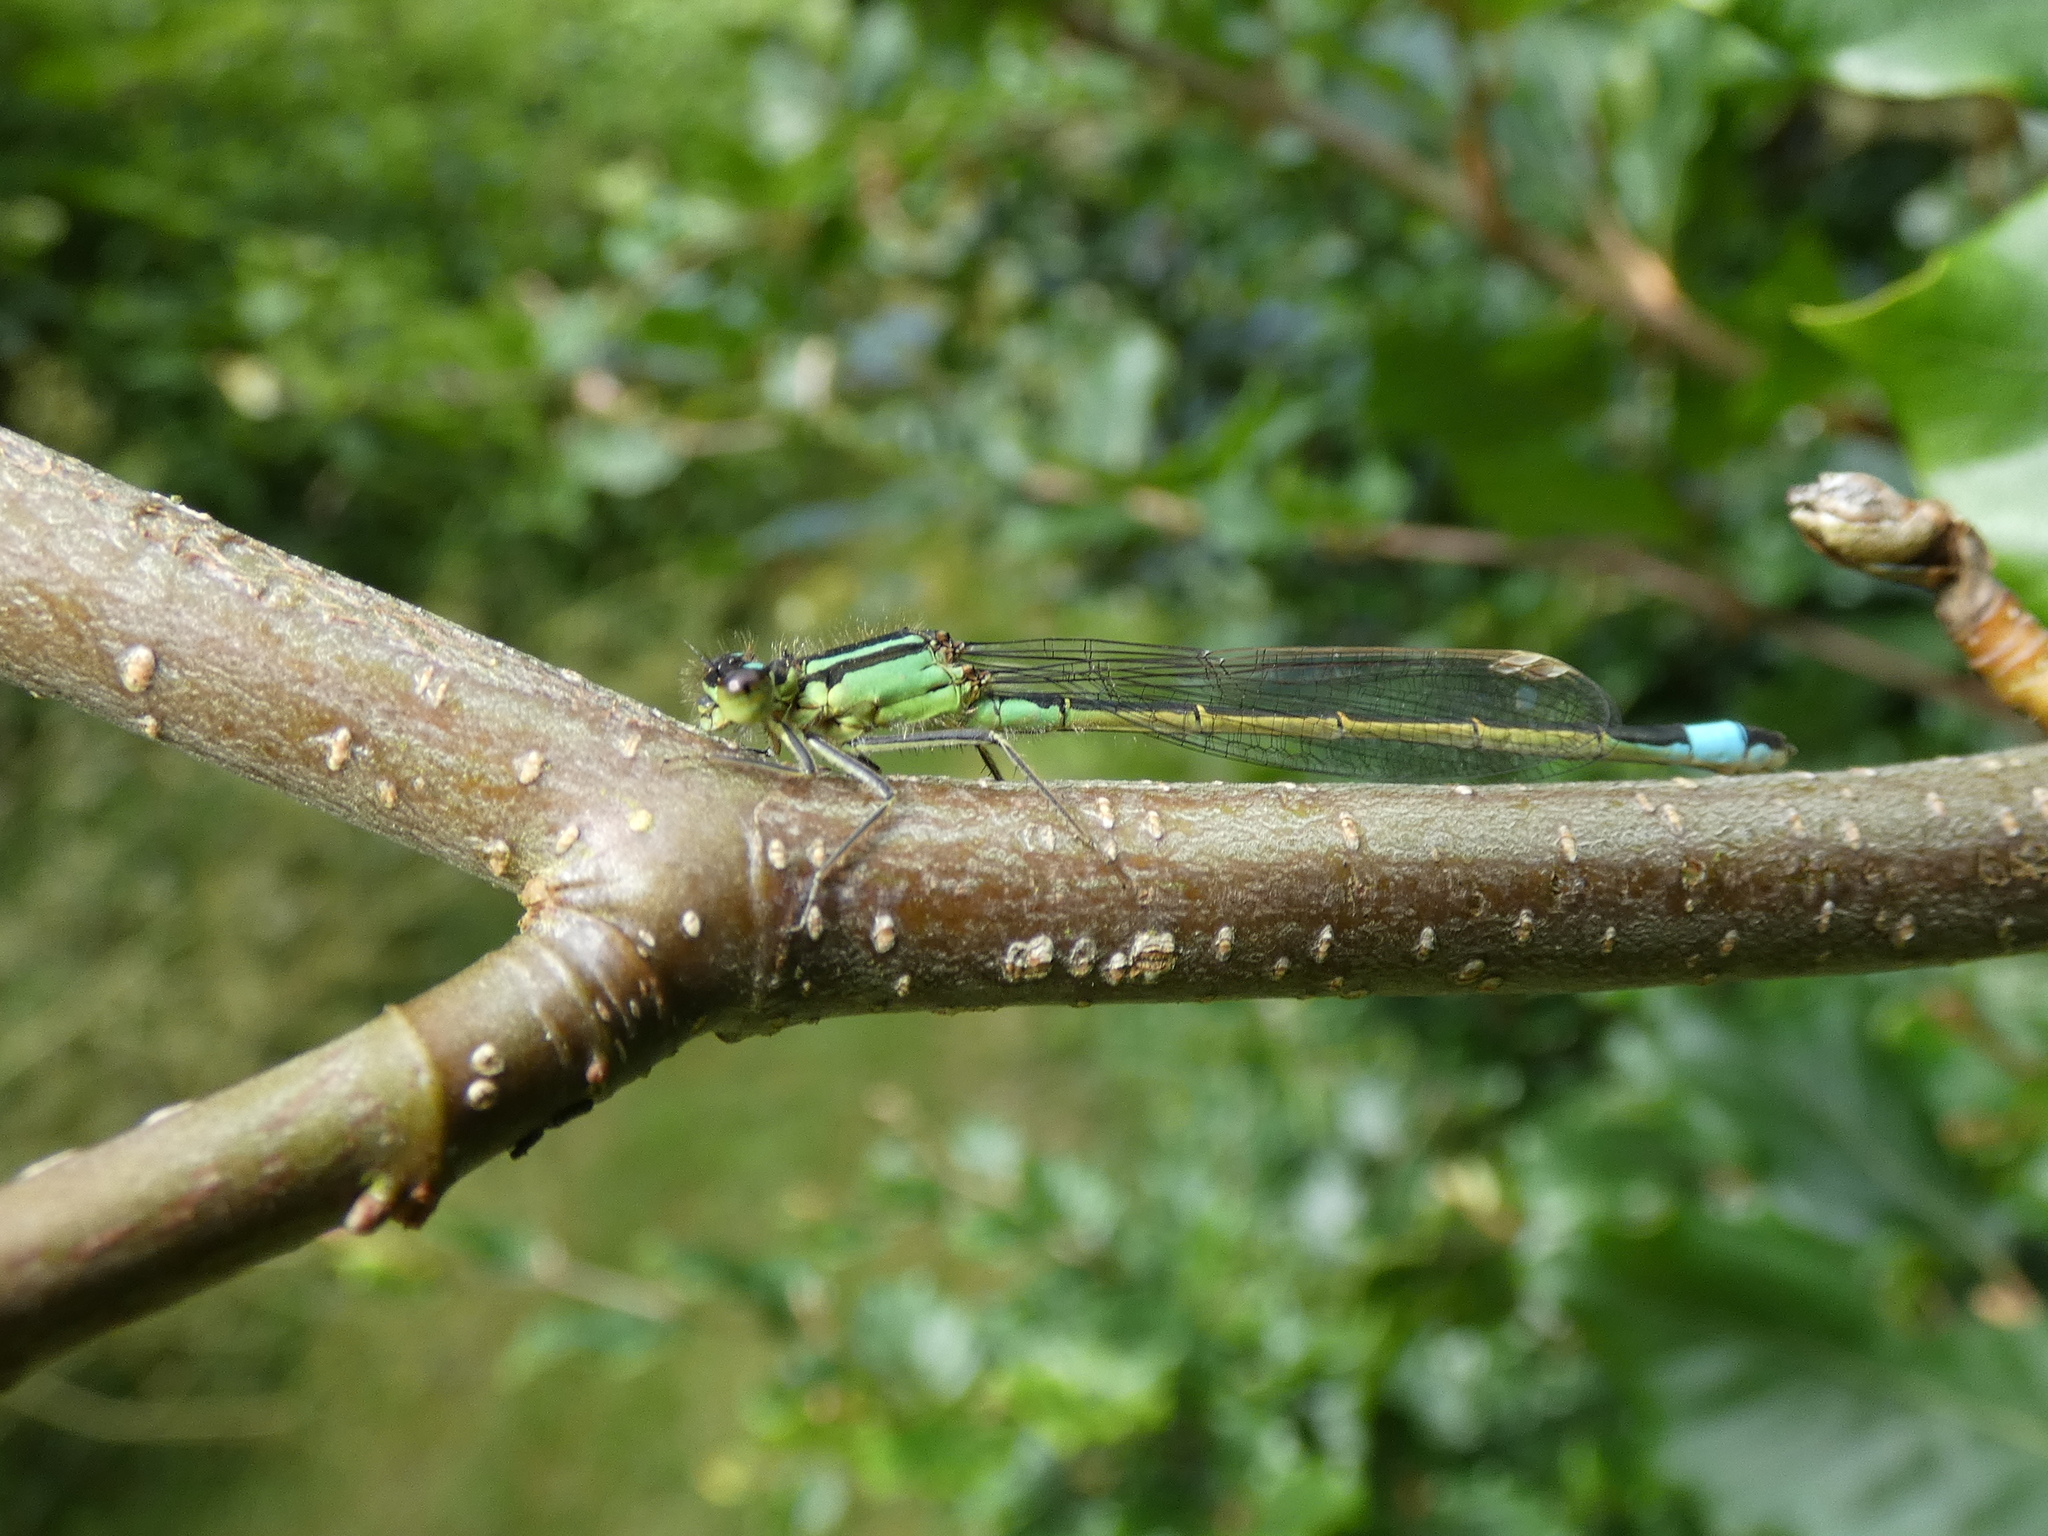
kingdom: Animalia
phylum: Arthropoda
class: Insecta
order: Odonata
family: Coenagrionidae
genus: Ischnura
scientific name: Ischnura elegans
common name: Blue-tailed damselfly
